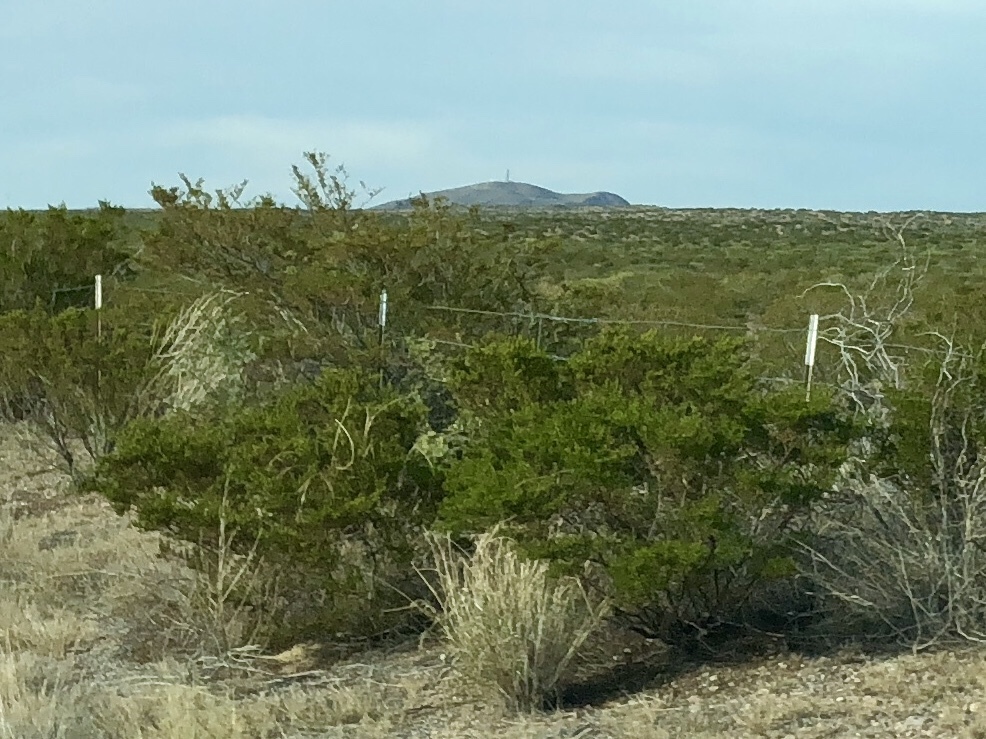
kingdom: Plantae
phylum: Tracheophyta
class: Magnoliopsida
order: Zygophyllales
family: Zygophyllaceae
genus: Larrea
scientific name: Larrea tridentata
